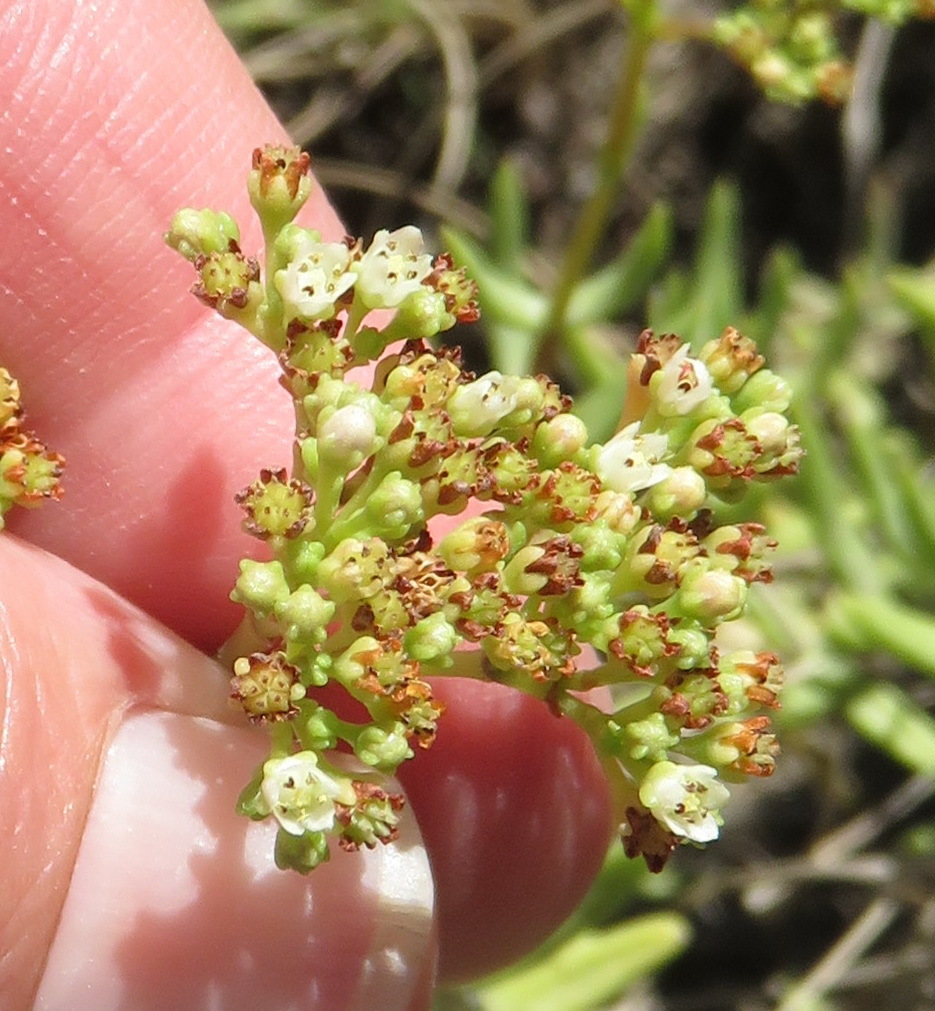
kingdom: Plantae
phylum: Tracheophyta
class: Magnoliopsida
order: Saxifragales
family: Crassulaceae
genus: Crassula
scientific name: Crassula tetragona
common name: Pygmyweed
